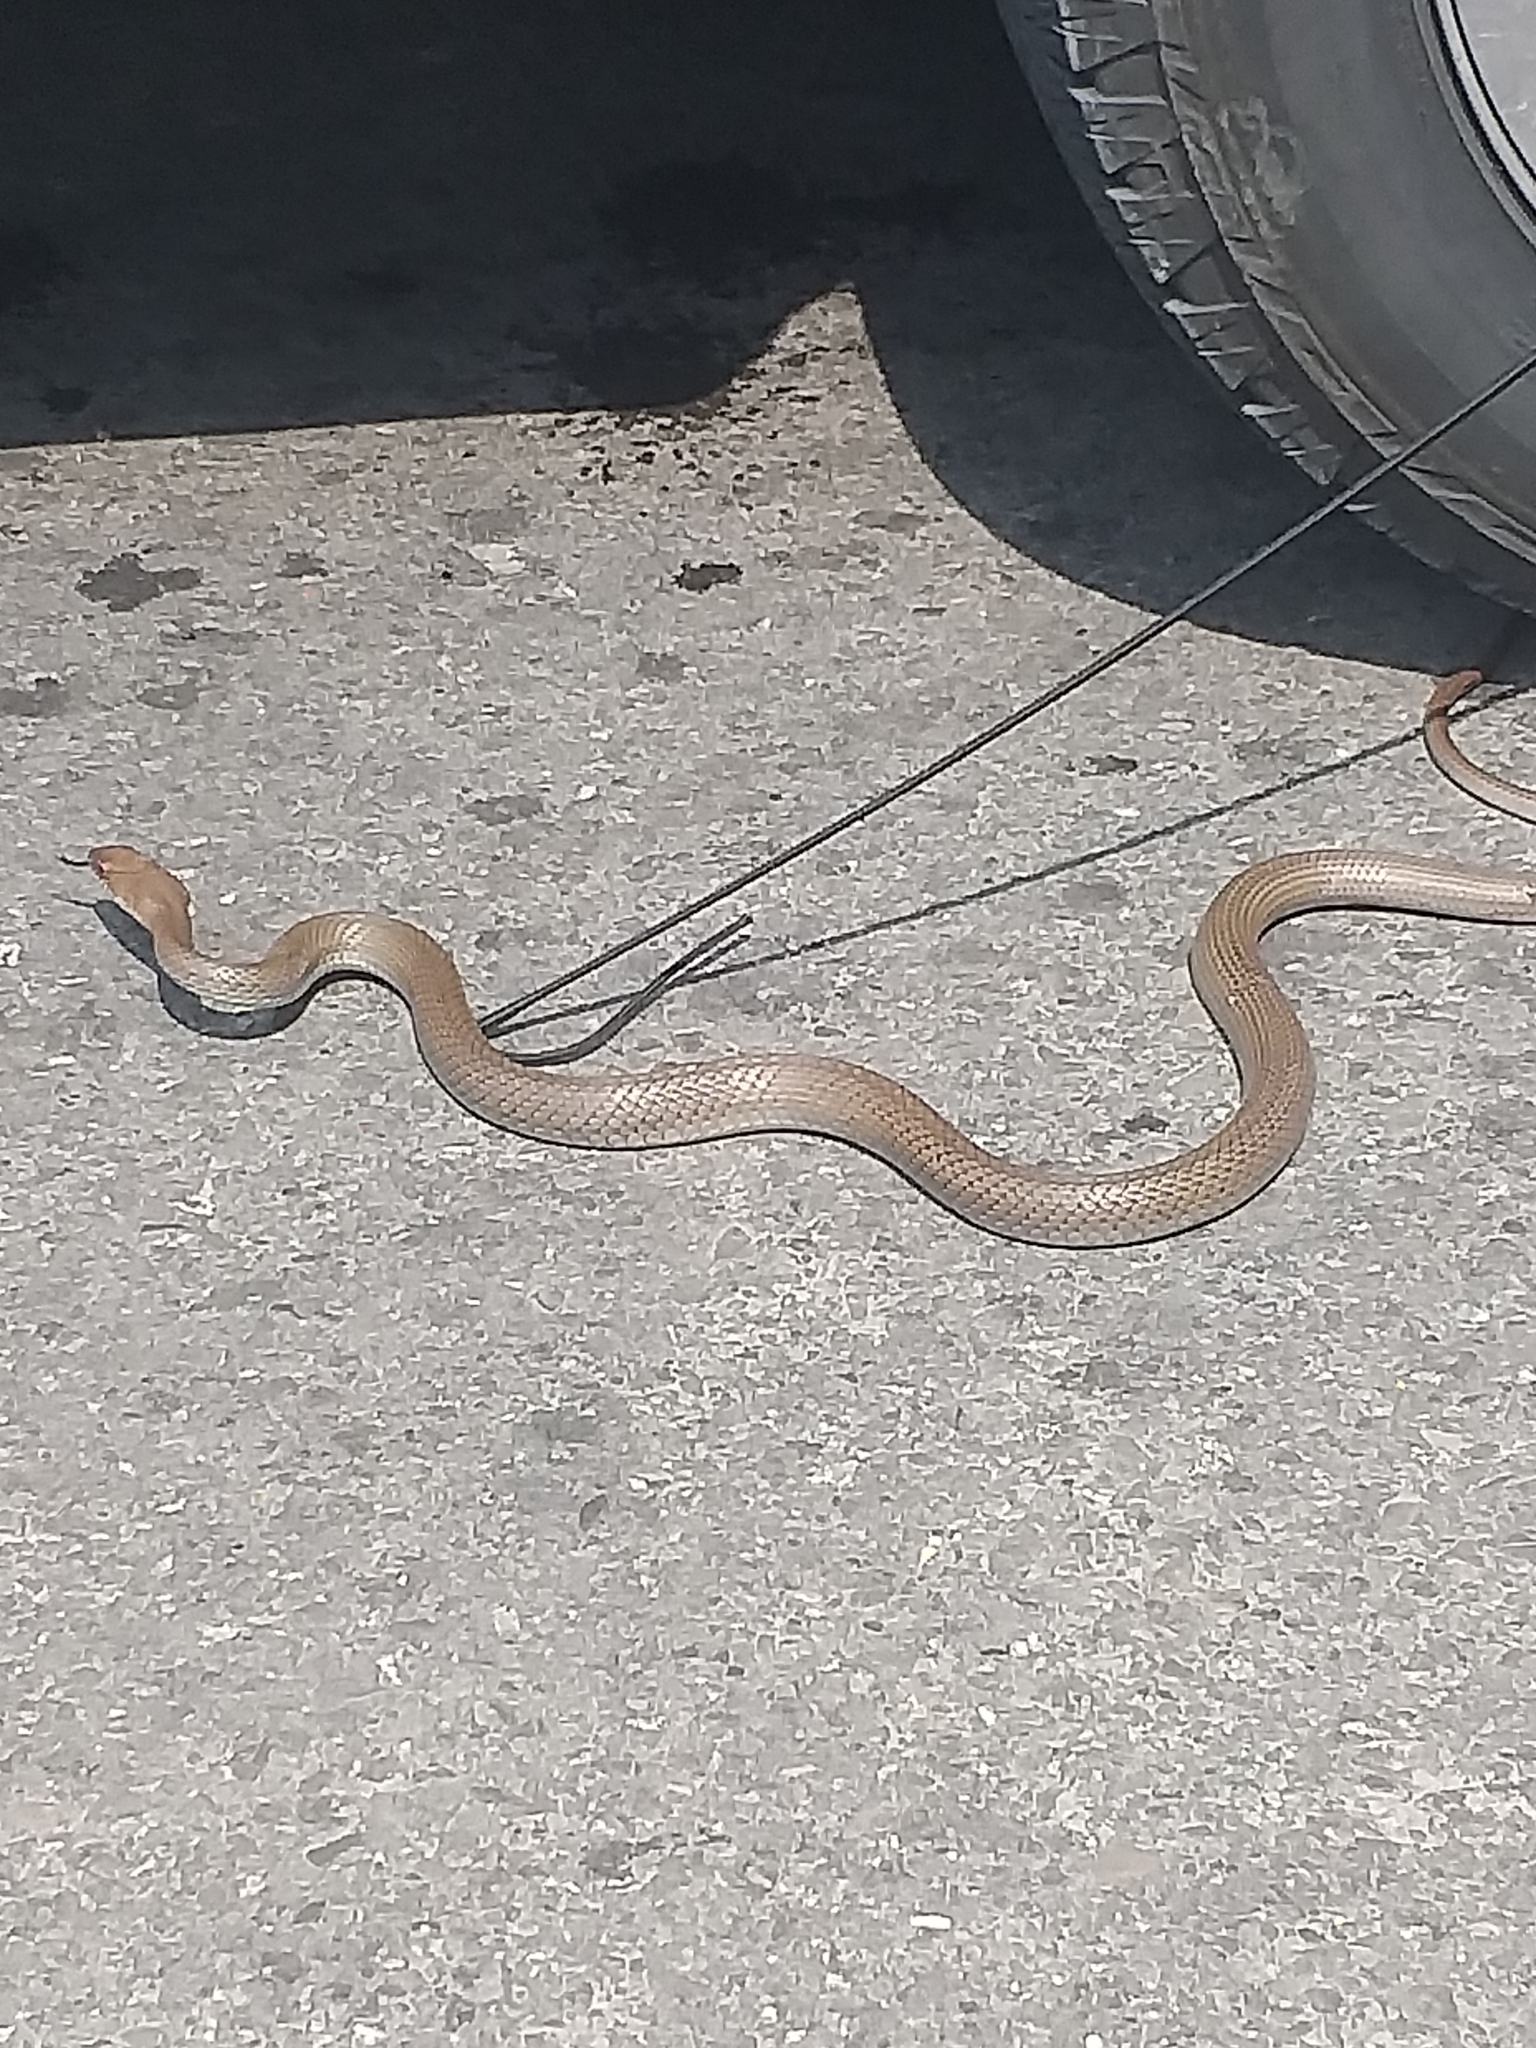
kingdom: Animalia
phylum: Chordata
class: Squamata
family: Colubridae
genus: Masticophis
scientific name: Masticophis mentovarius
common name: Neotropical whip snake
